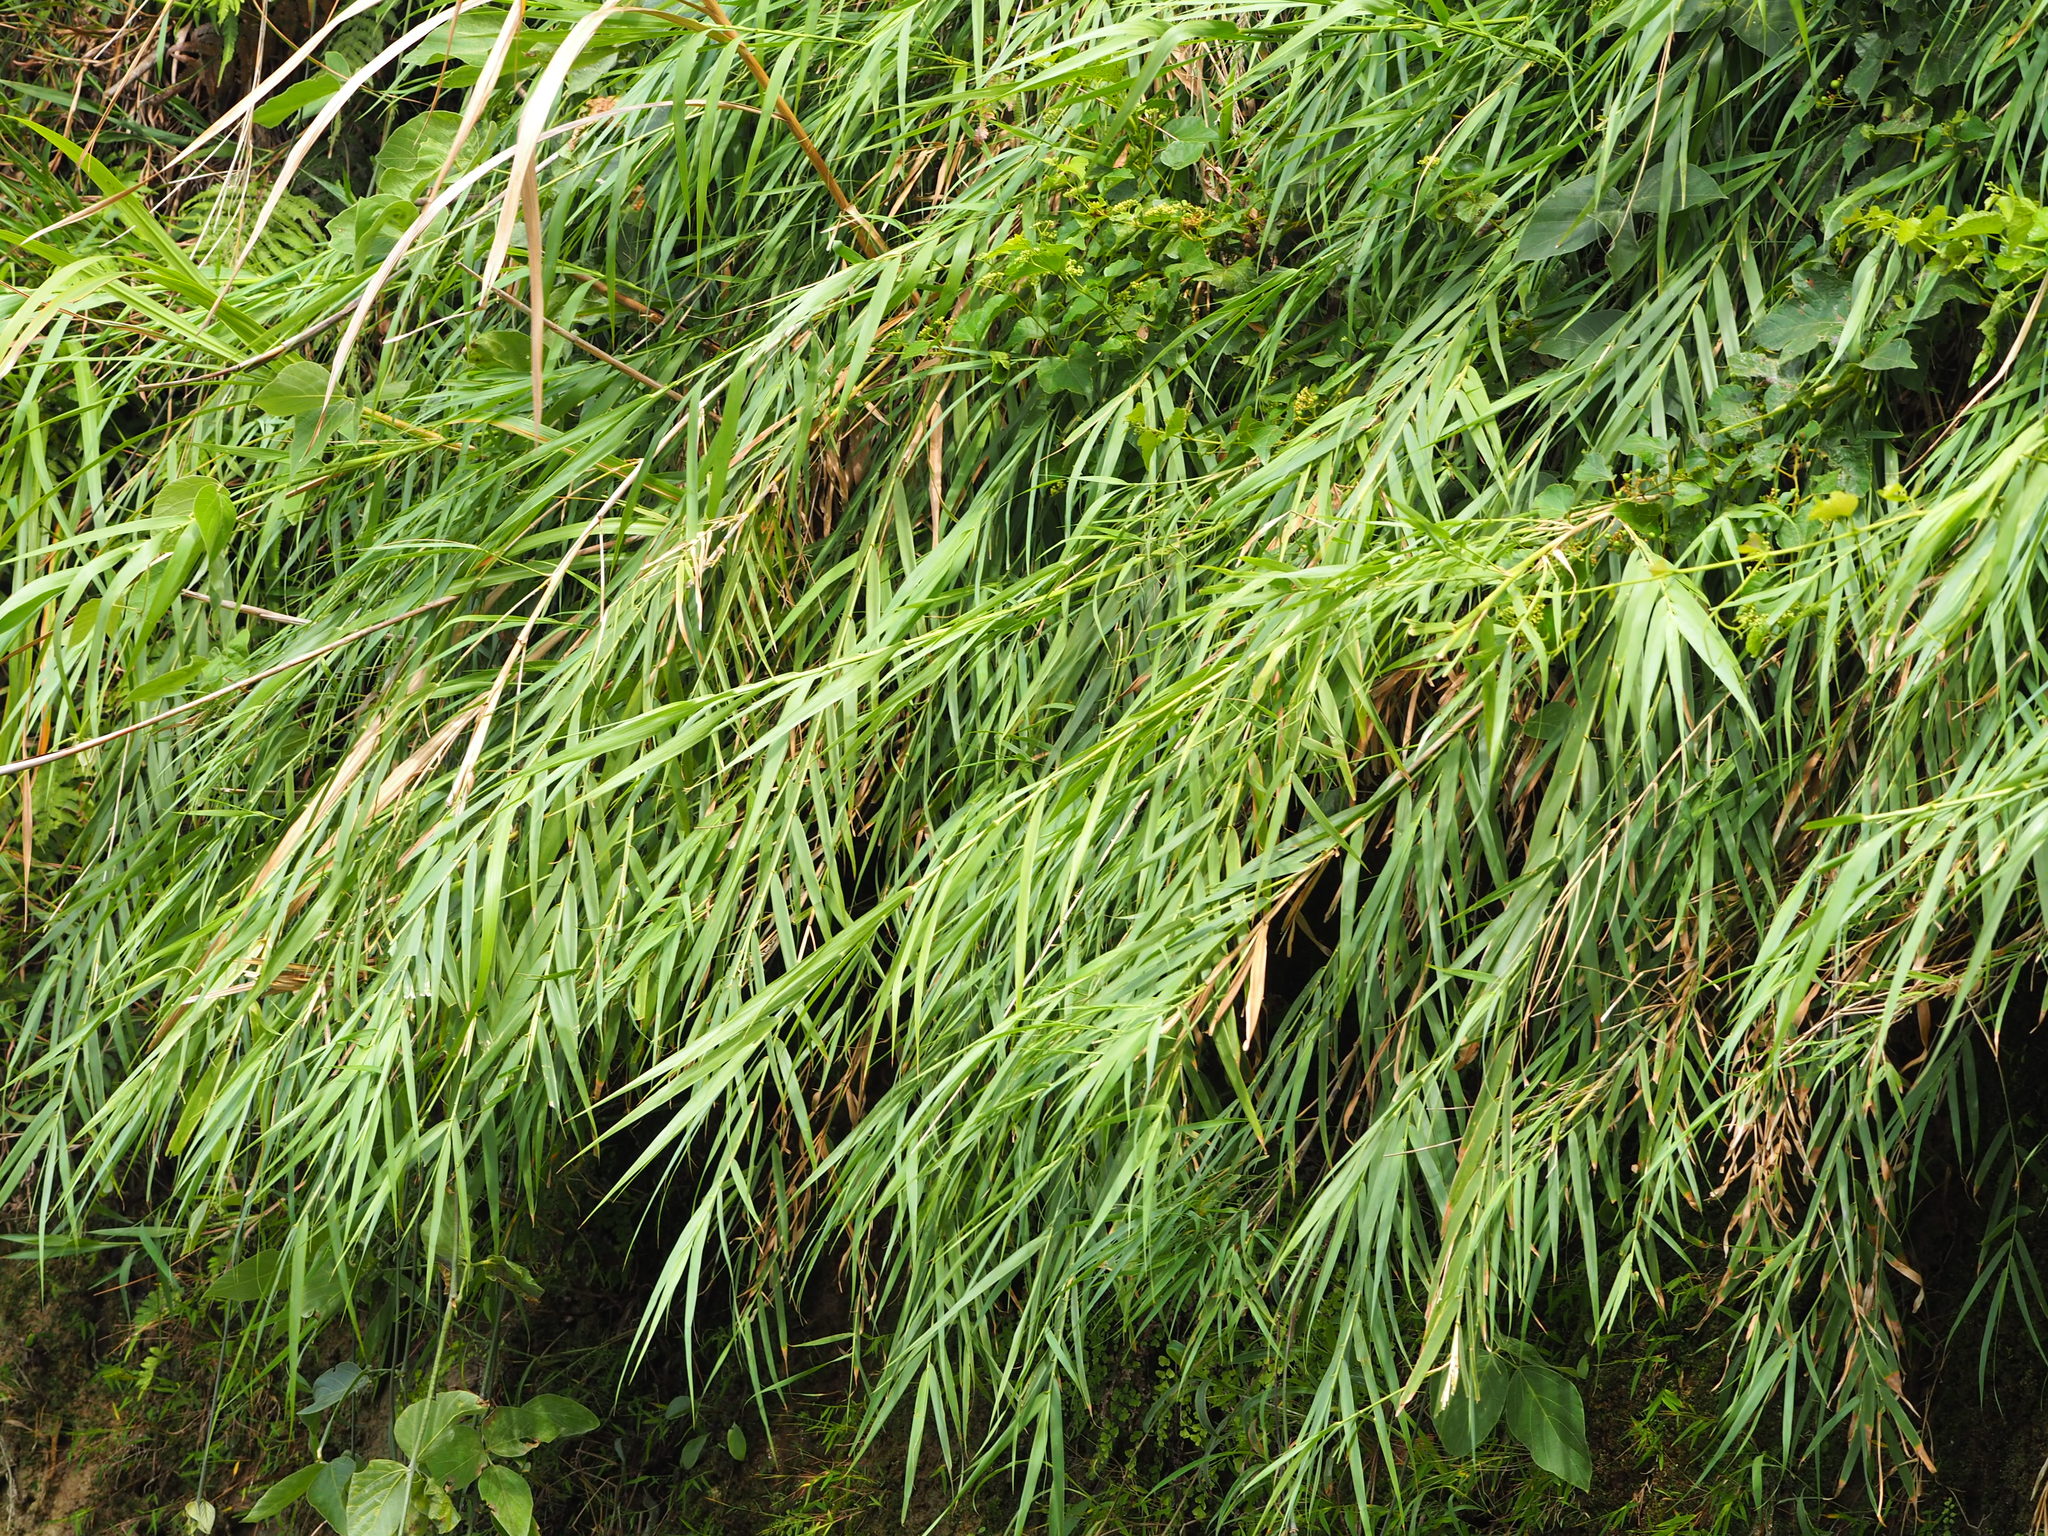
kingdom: Plantae
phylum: Tracheophyta
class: Liliopsida
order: Poales
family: Poaceae
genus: Arundo
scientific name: Arundo formosana
